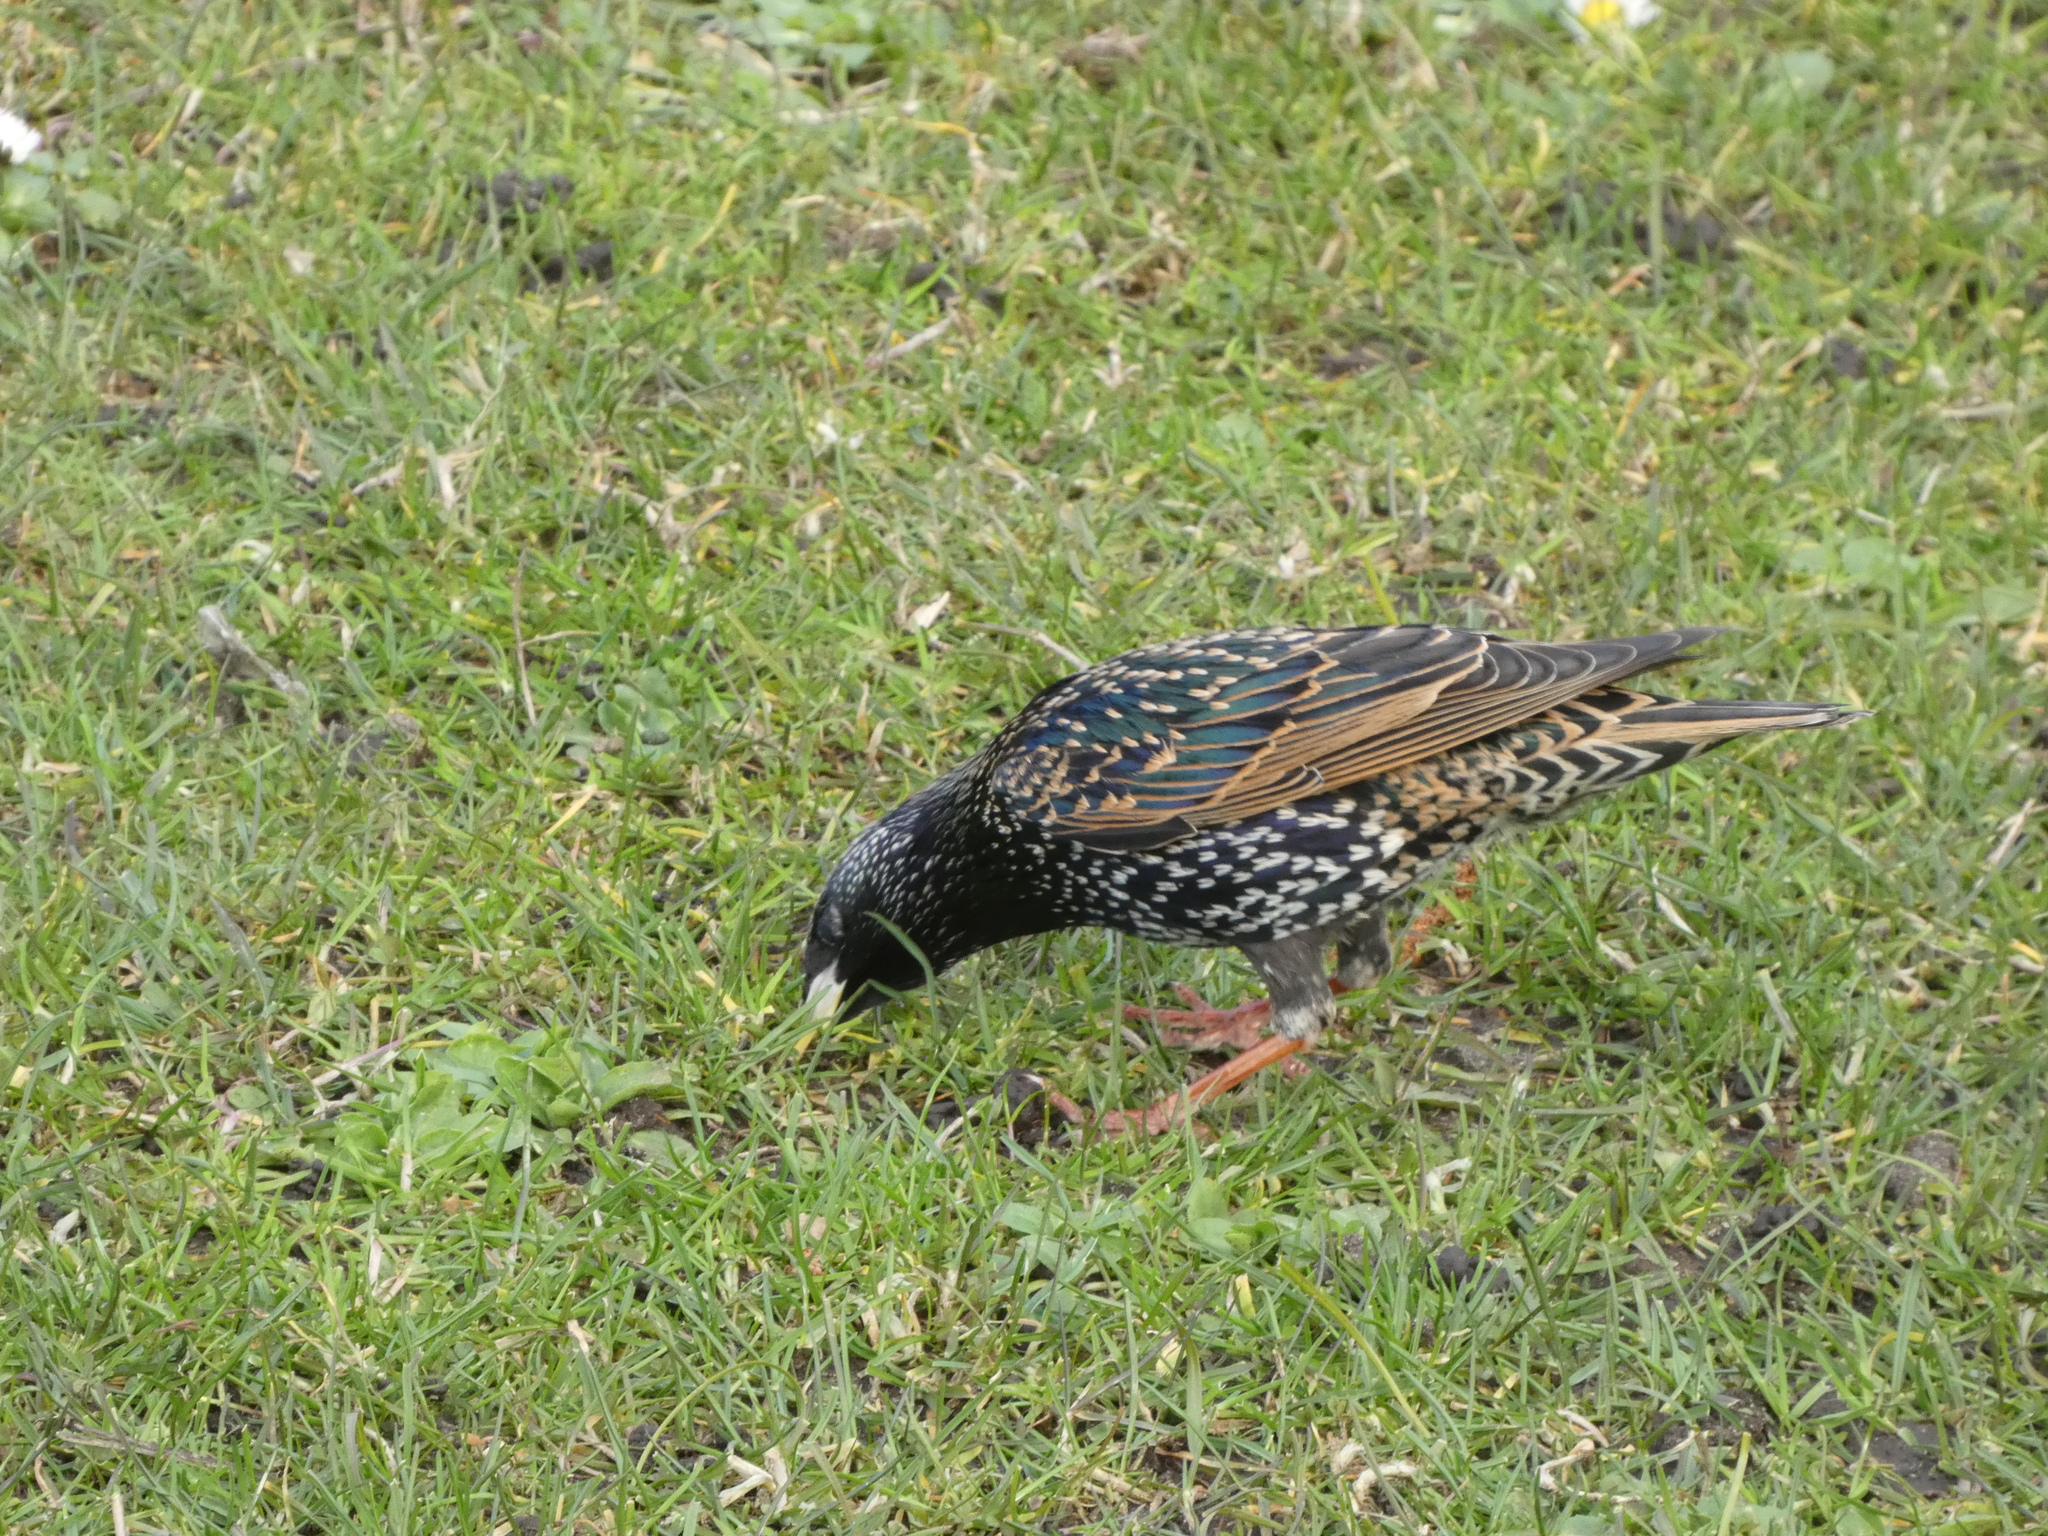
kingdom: Animalia
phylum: Chordata
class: Aves
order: Passeriformes
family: Sturnidae
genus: Sturnus
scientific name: Sturnus vulgaris
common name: Common starling
